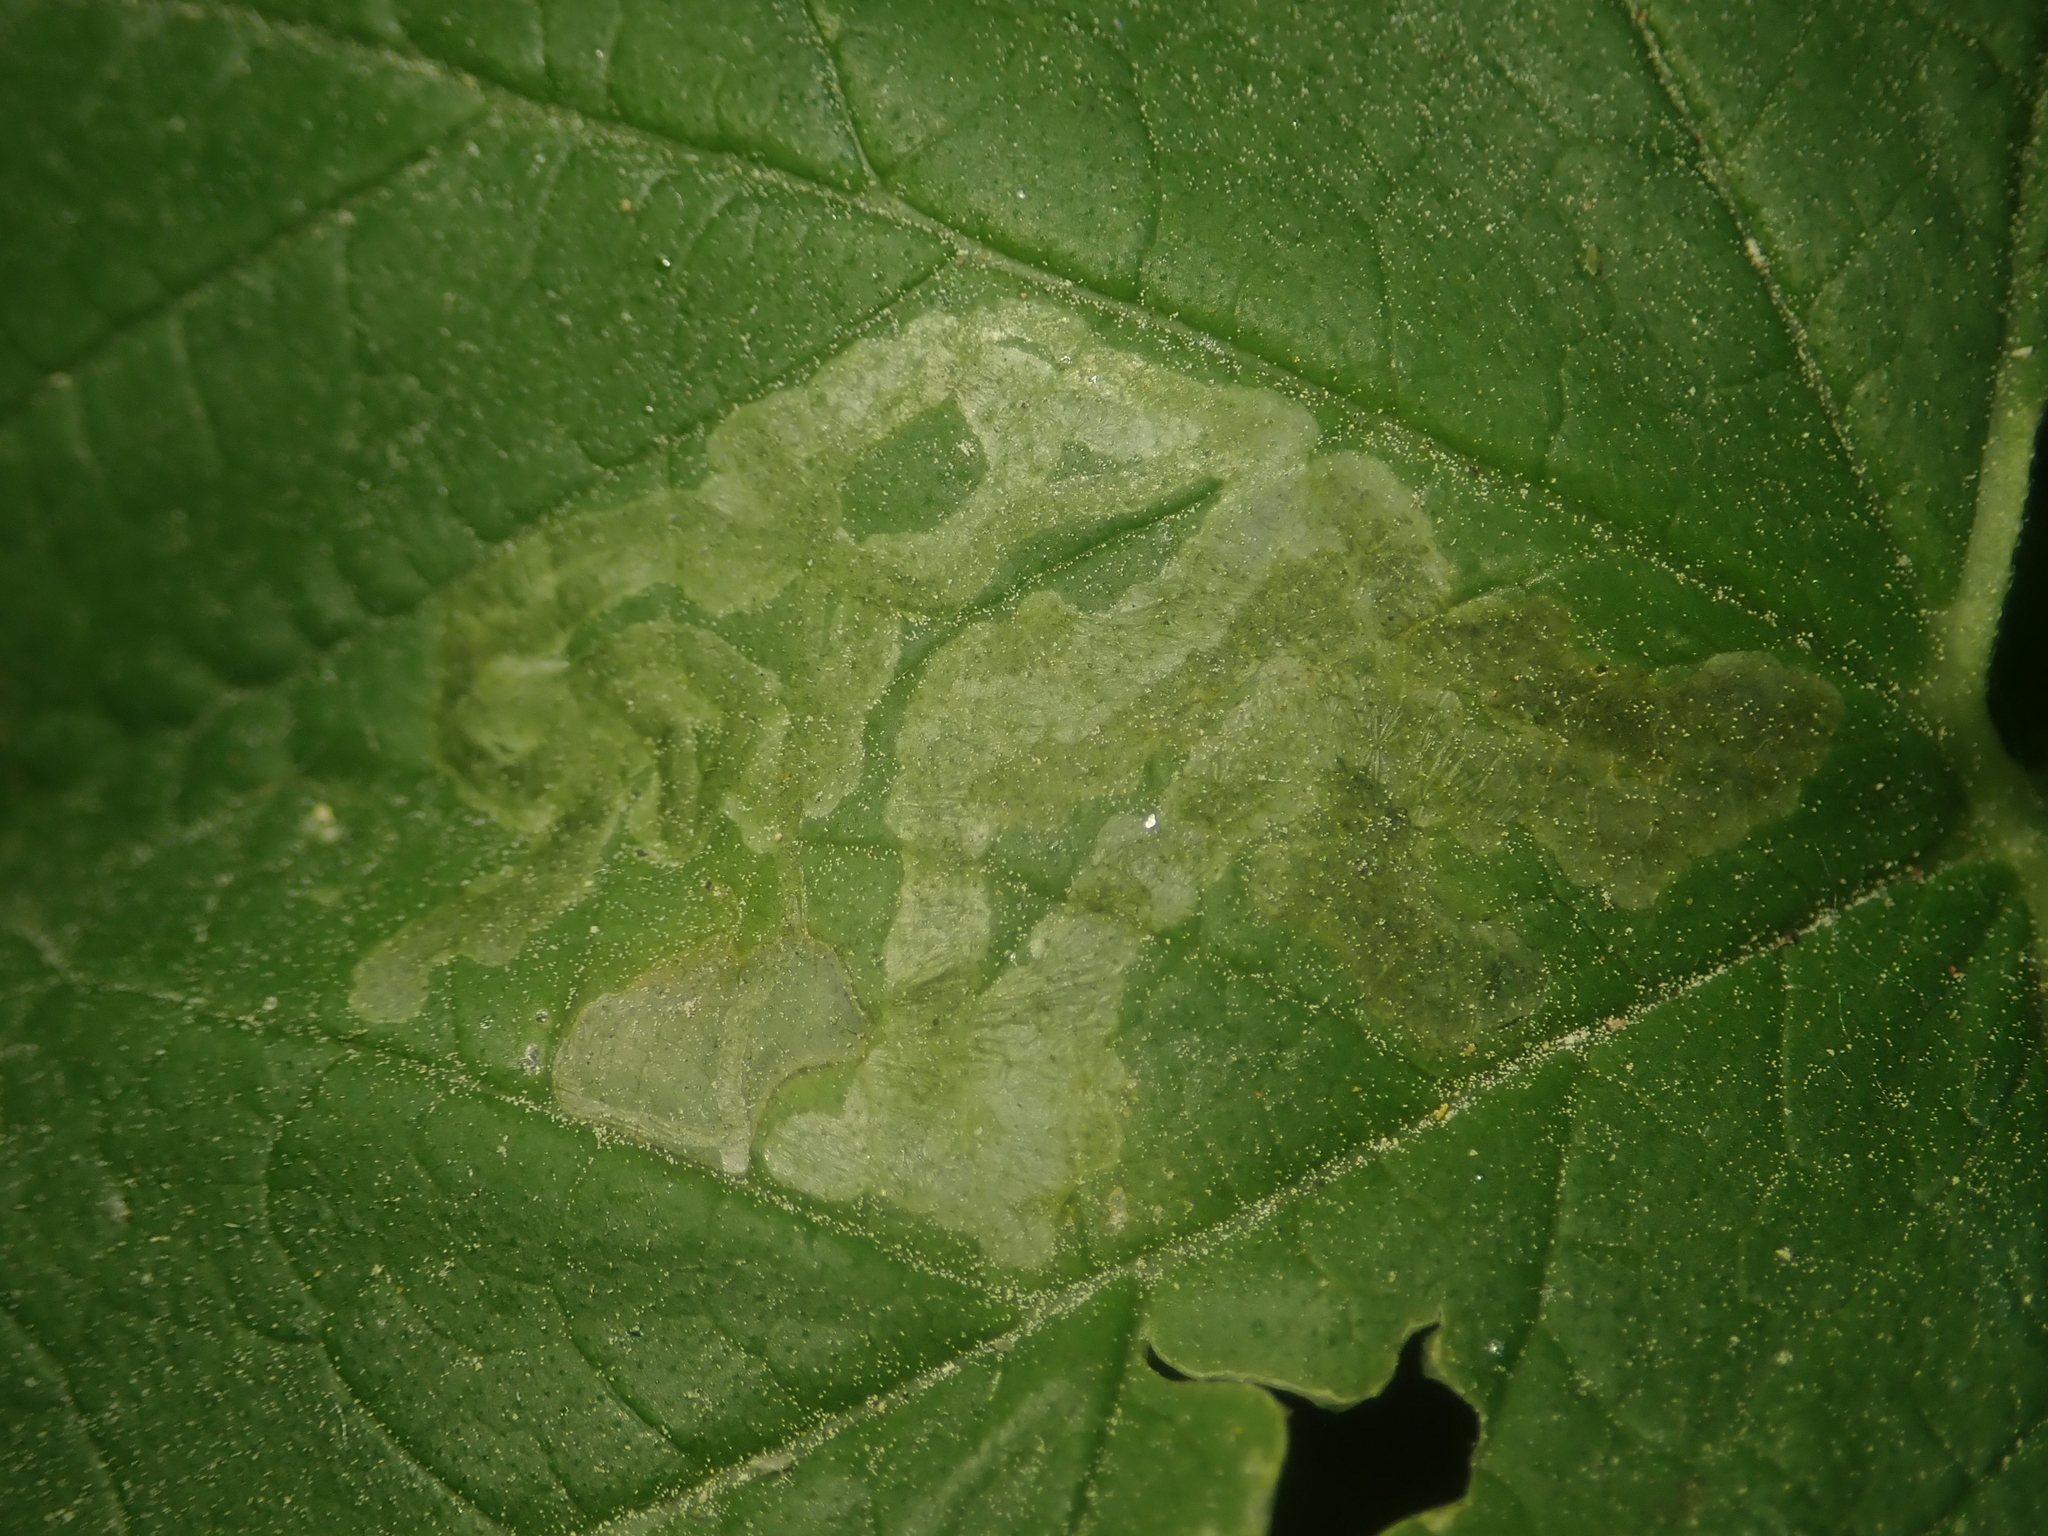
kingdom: Animalia
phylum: Arthropoda
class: Insecta
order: Diptera
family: Agromyzidae
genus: Agromyza
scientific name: Agromyza flaviceps
